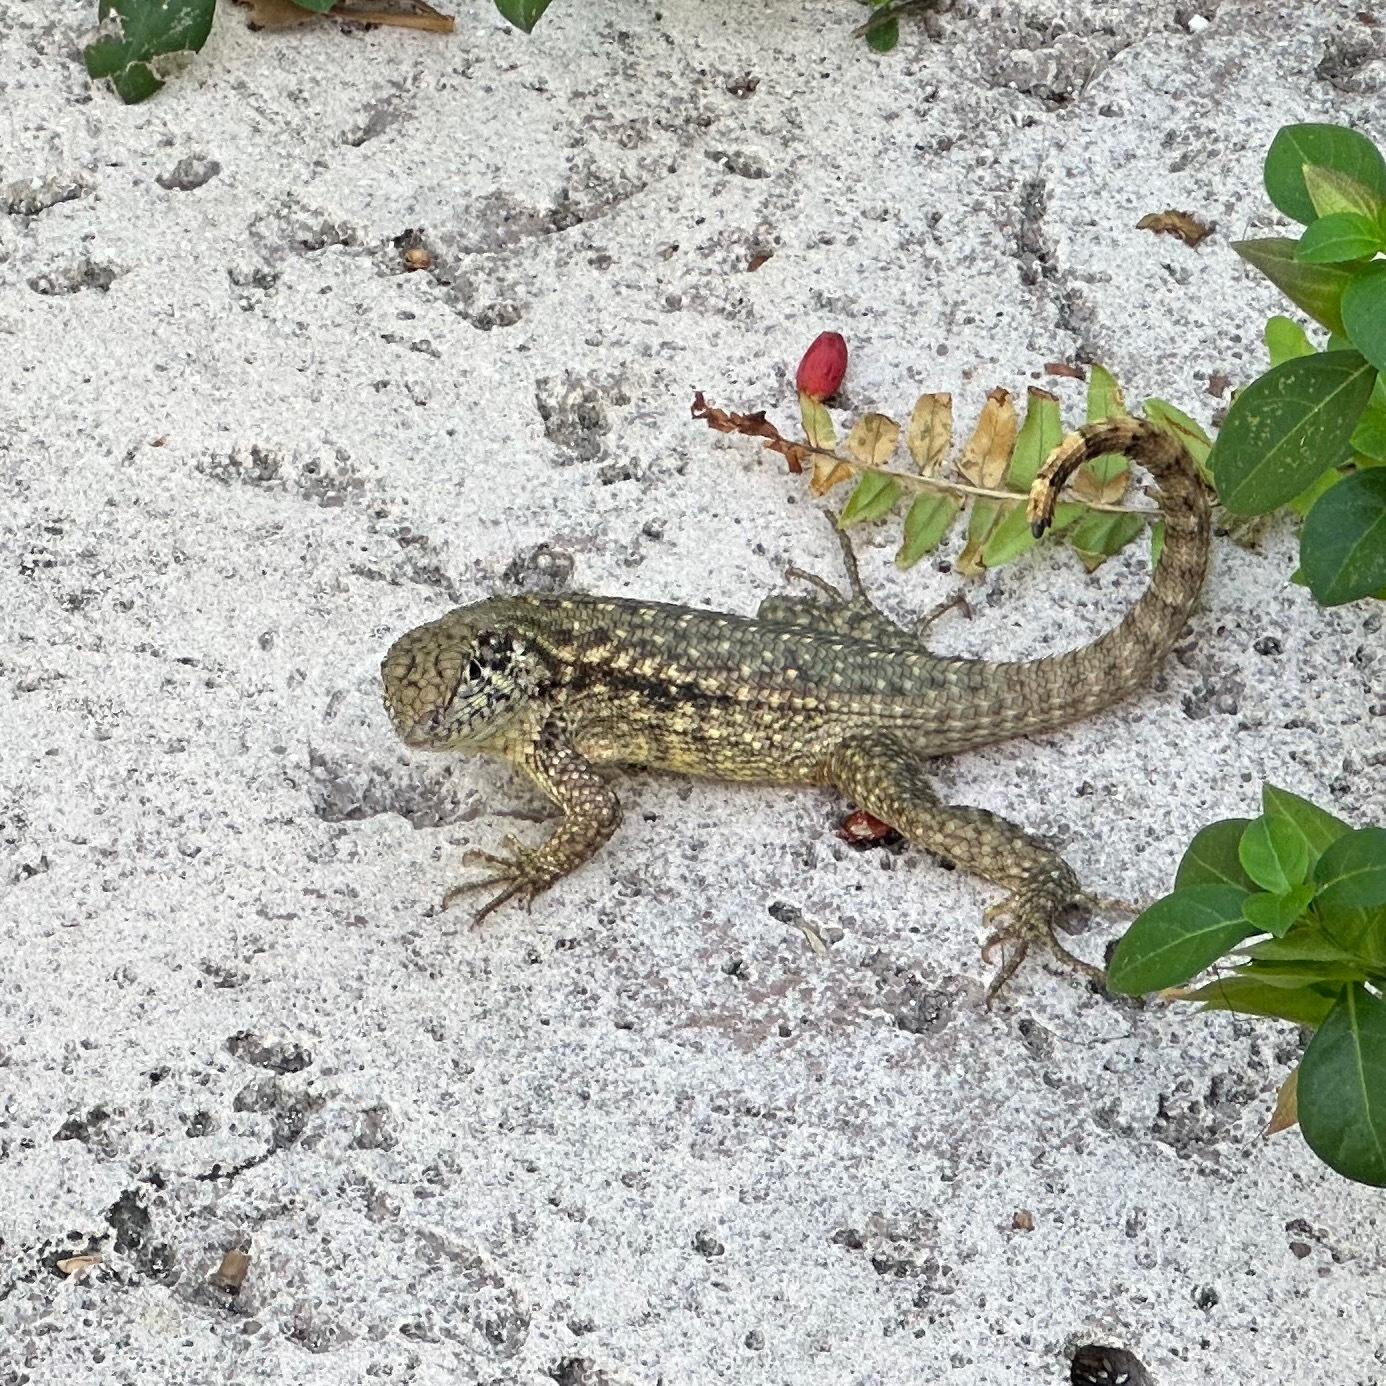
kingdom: Animalia
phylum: Chordata
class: Squamata
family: Leiocephalidae
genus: Leiocephalus
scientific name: Leiocephalus carinatus
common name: Northern curly-tailed lizard
